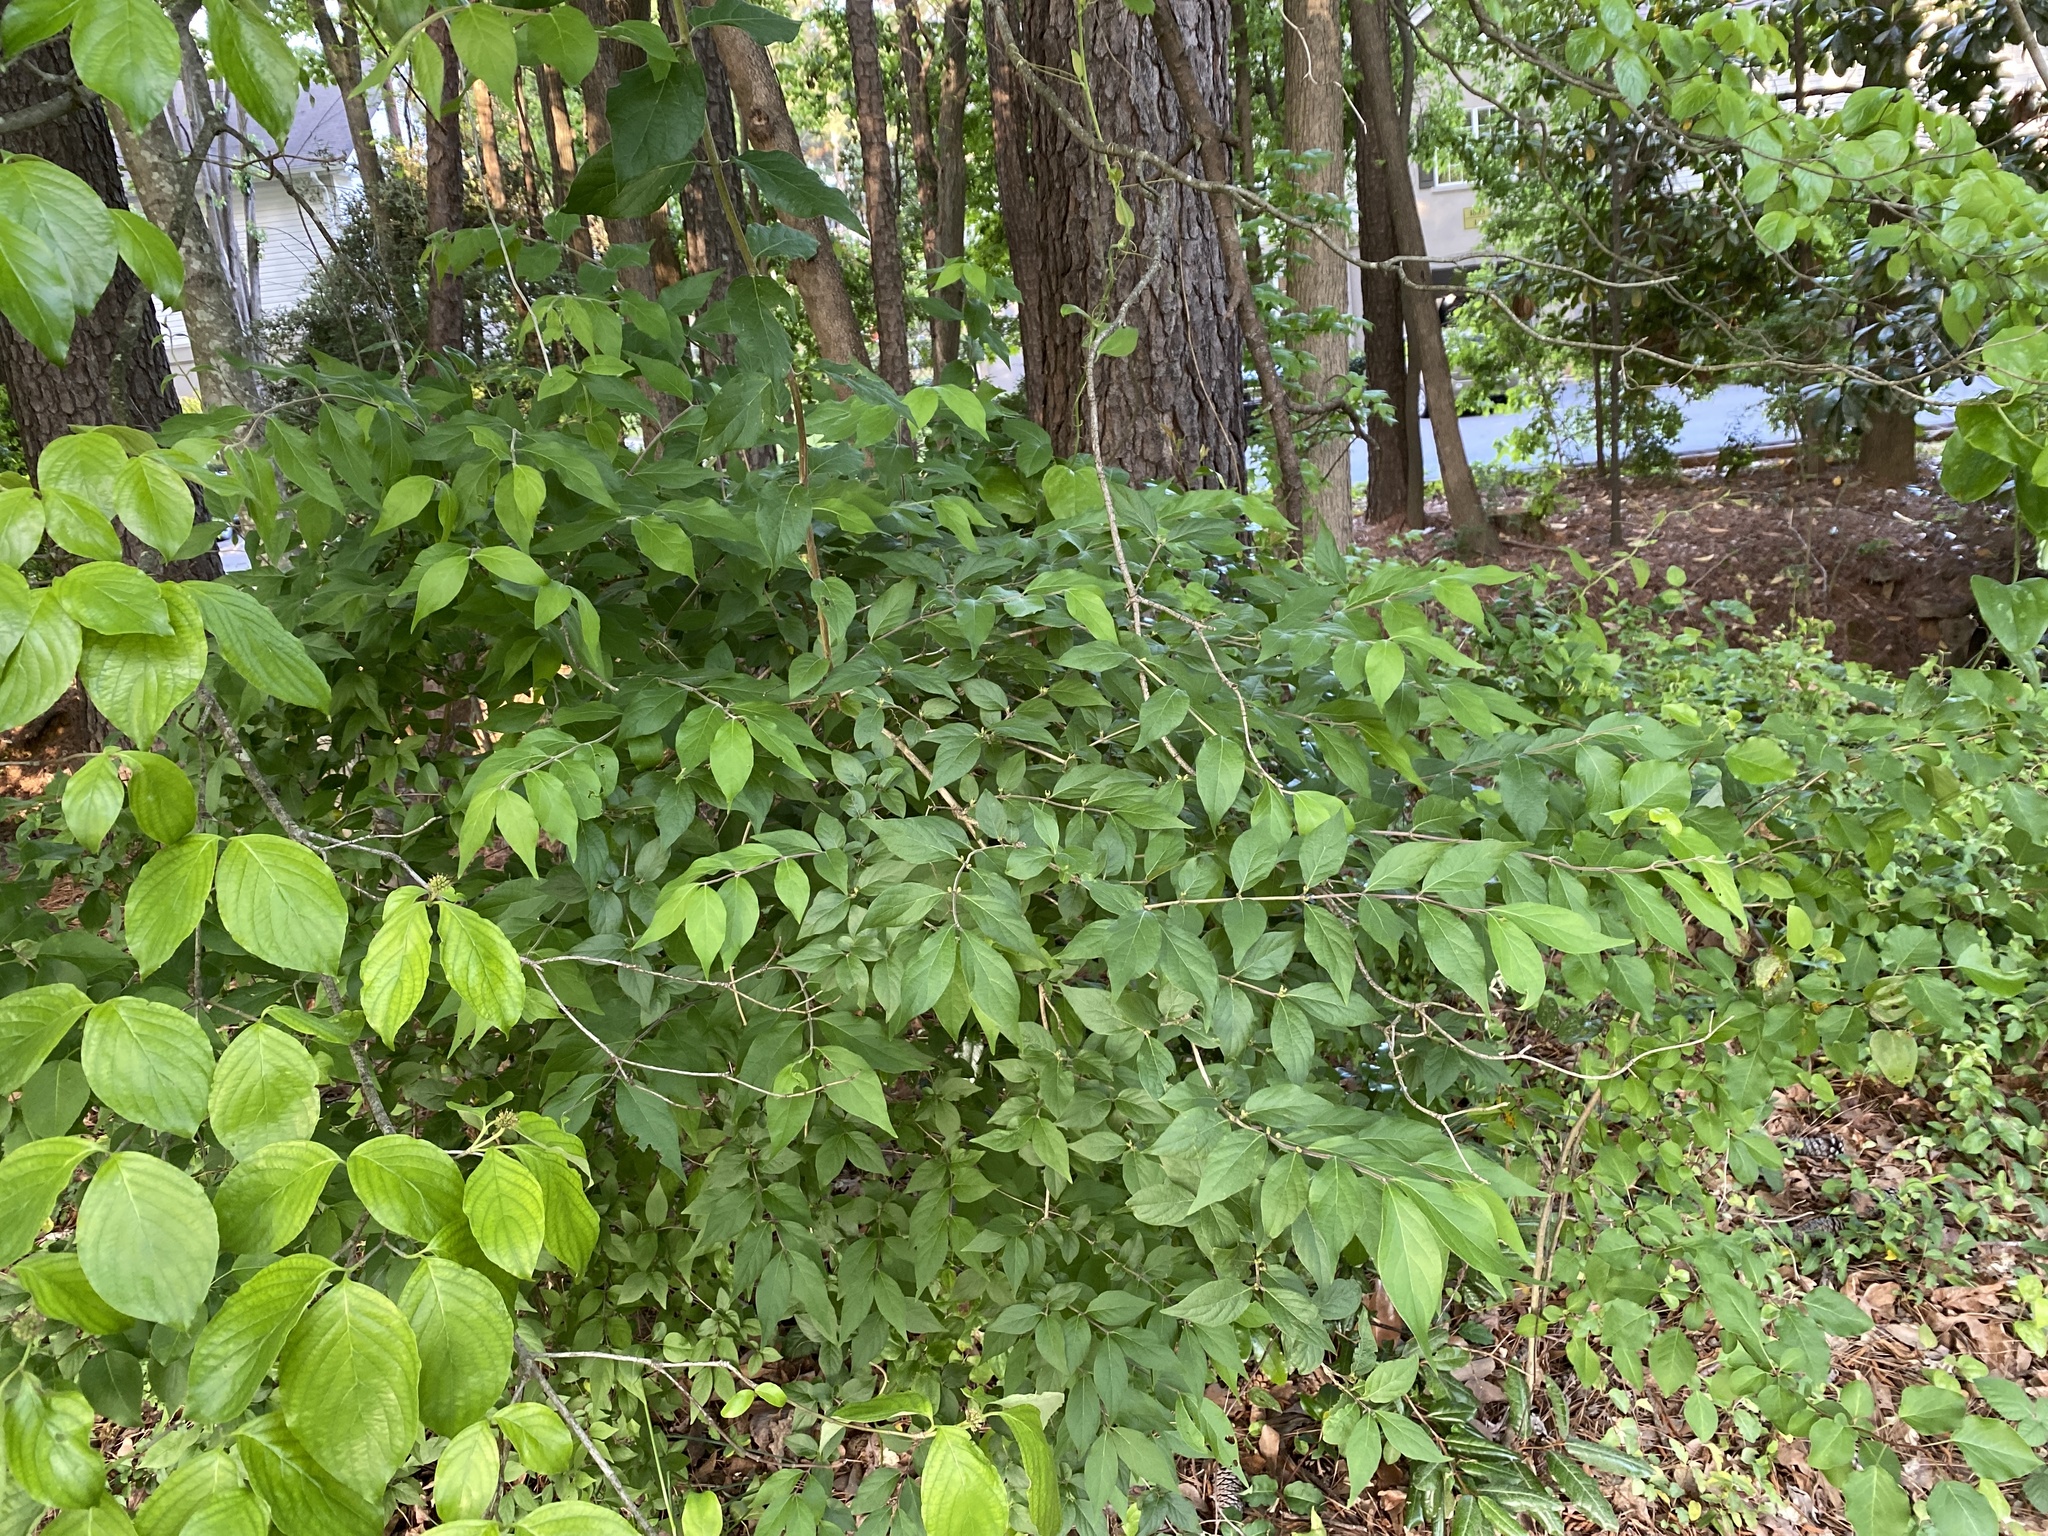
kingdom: Plantae
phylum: Tracheophyta
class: Magnoliopsida
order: Dipsacales
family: Caprifoliaceae
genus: Lonicera
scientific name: Lonicera maackii
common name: Amur honeysuckle
